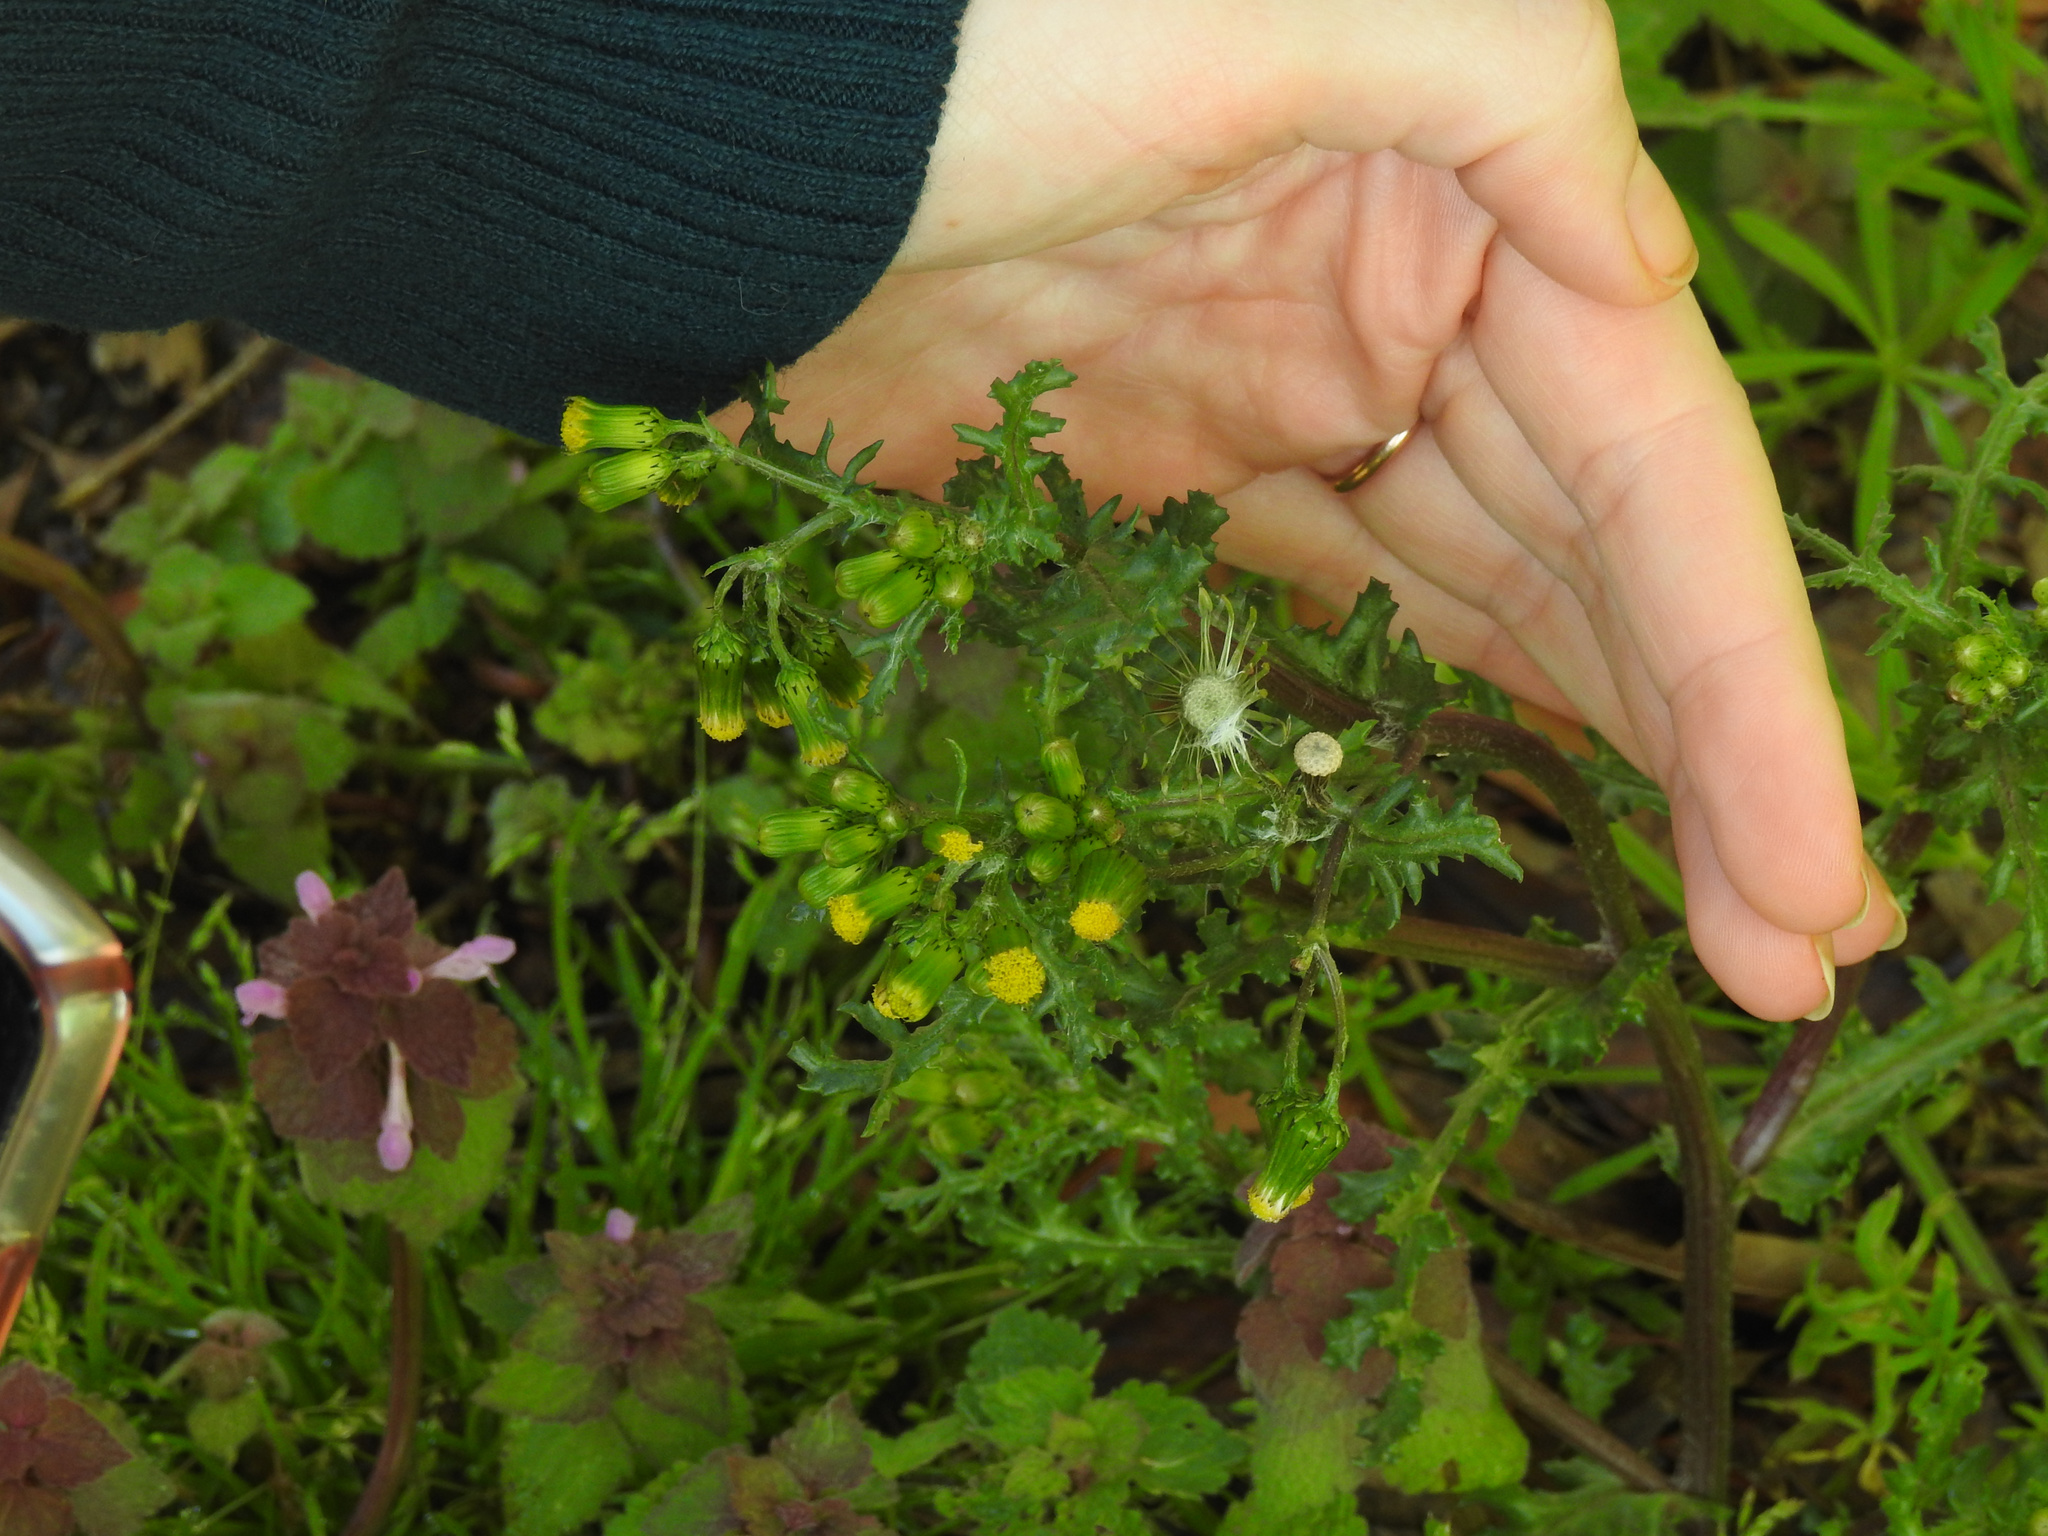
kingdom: Plantae
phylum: Tracheophyta
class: Magnoliopsida
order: Asterales
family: Asteraceae
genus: Senecio
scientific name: Senecio vulgaris
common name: Old-man-in-the-spring
